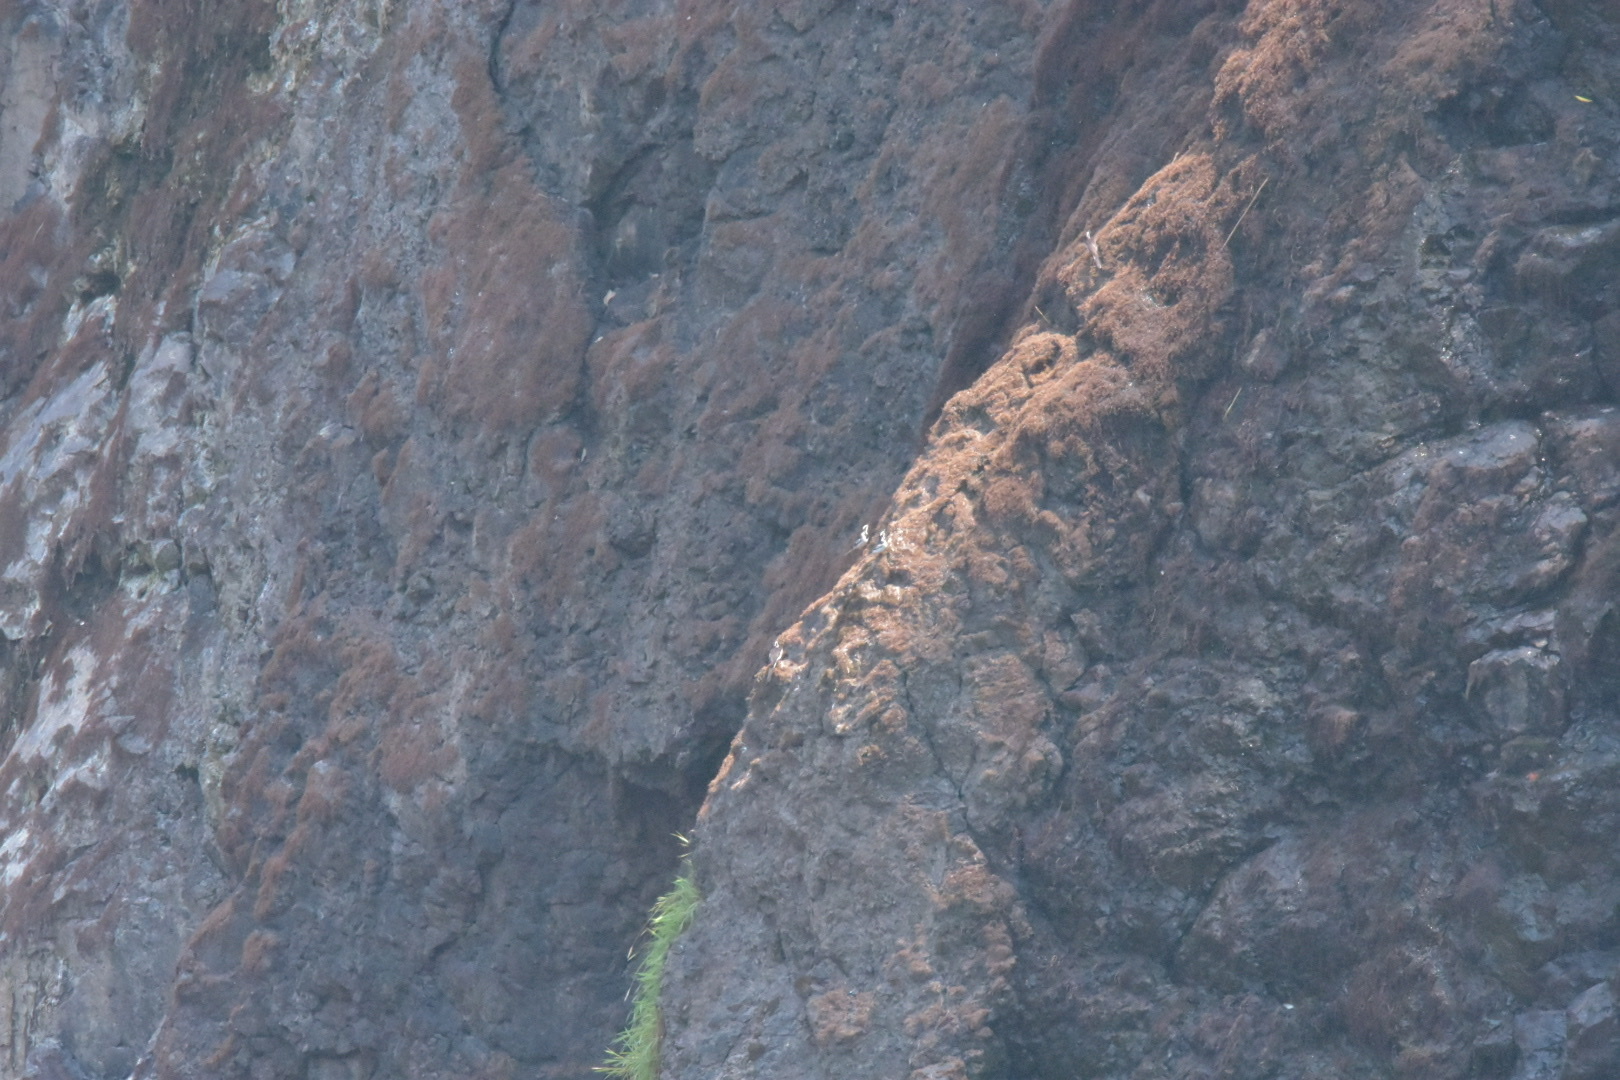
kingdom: Animalia
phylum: Chordata
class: Aves
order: Passeriformes
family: Motacillidae
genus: Motacilla
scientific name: Motacilla aguimp
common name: African pied wagtail
